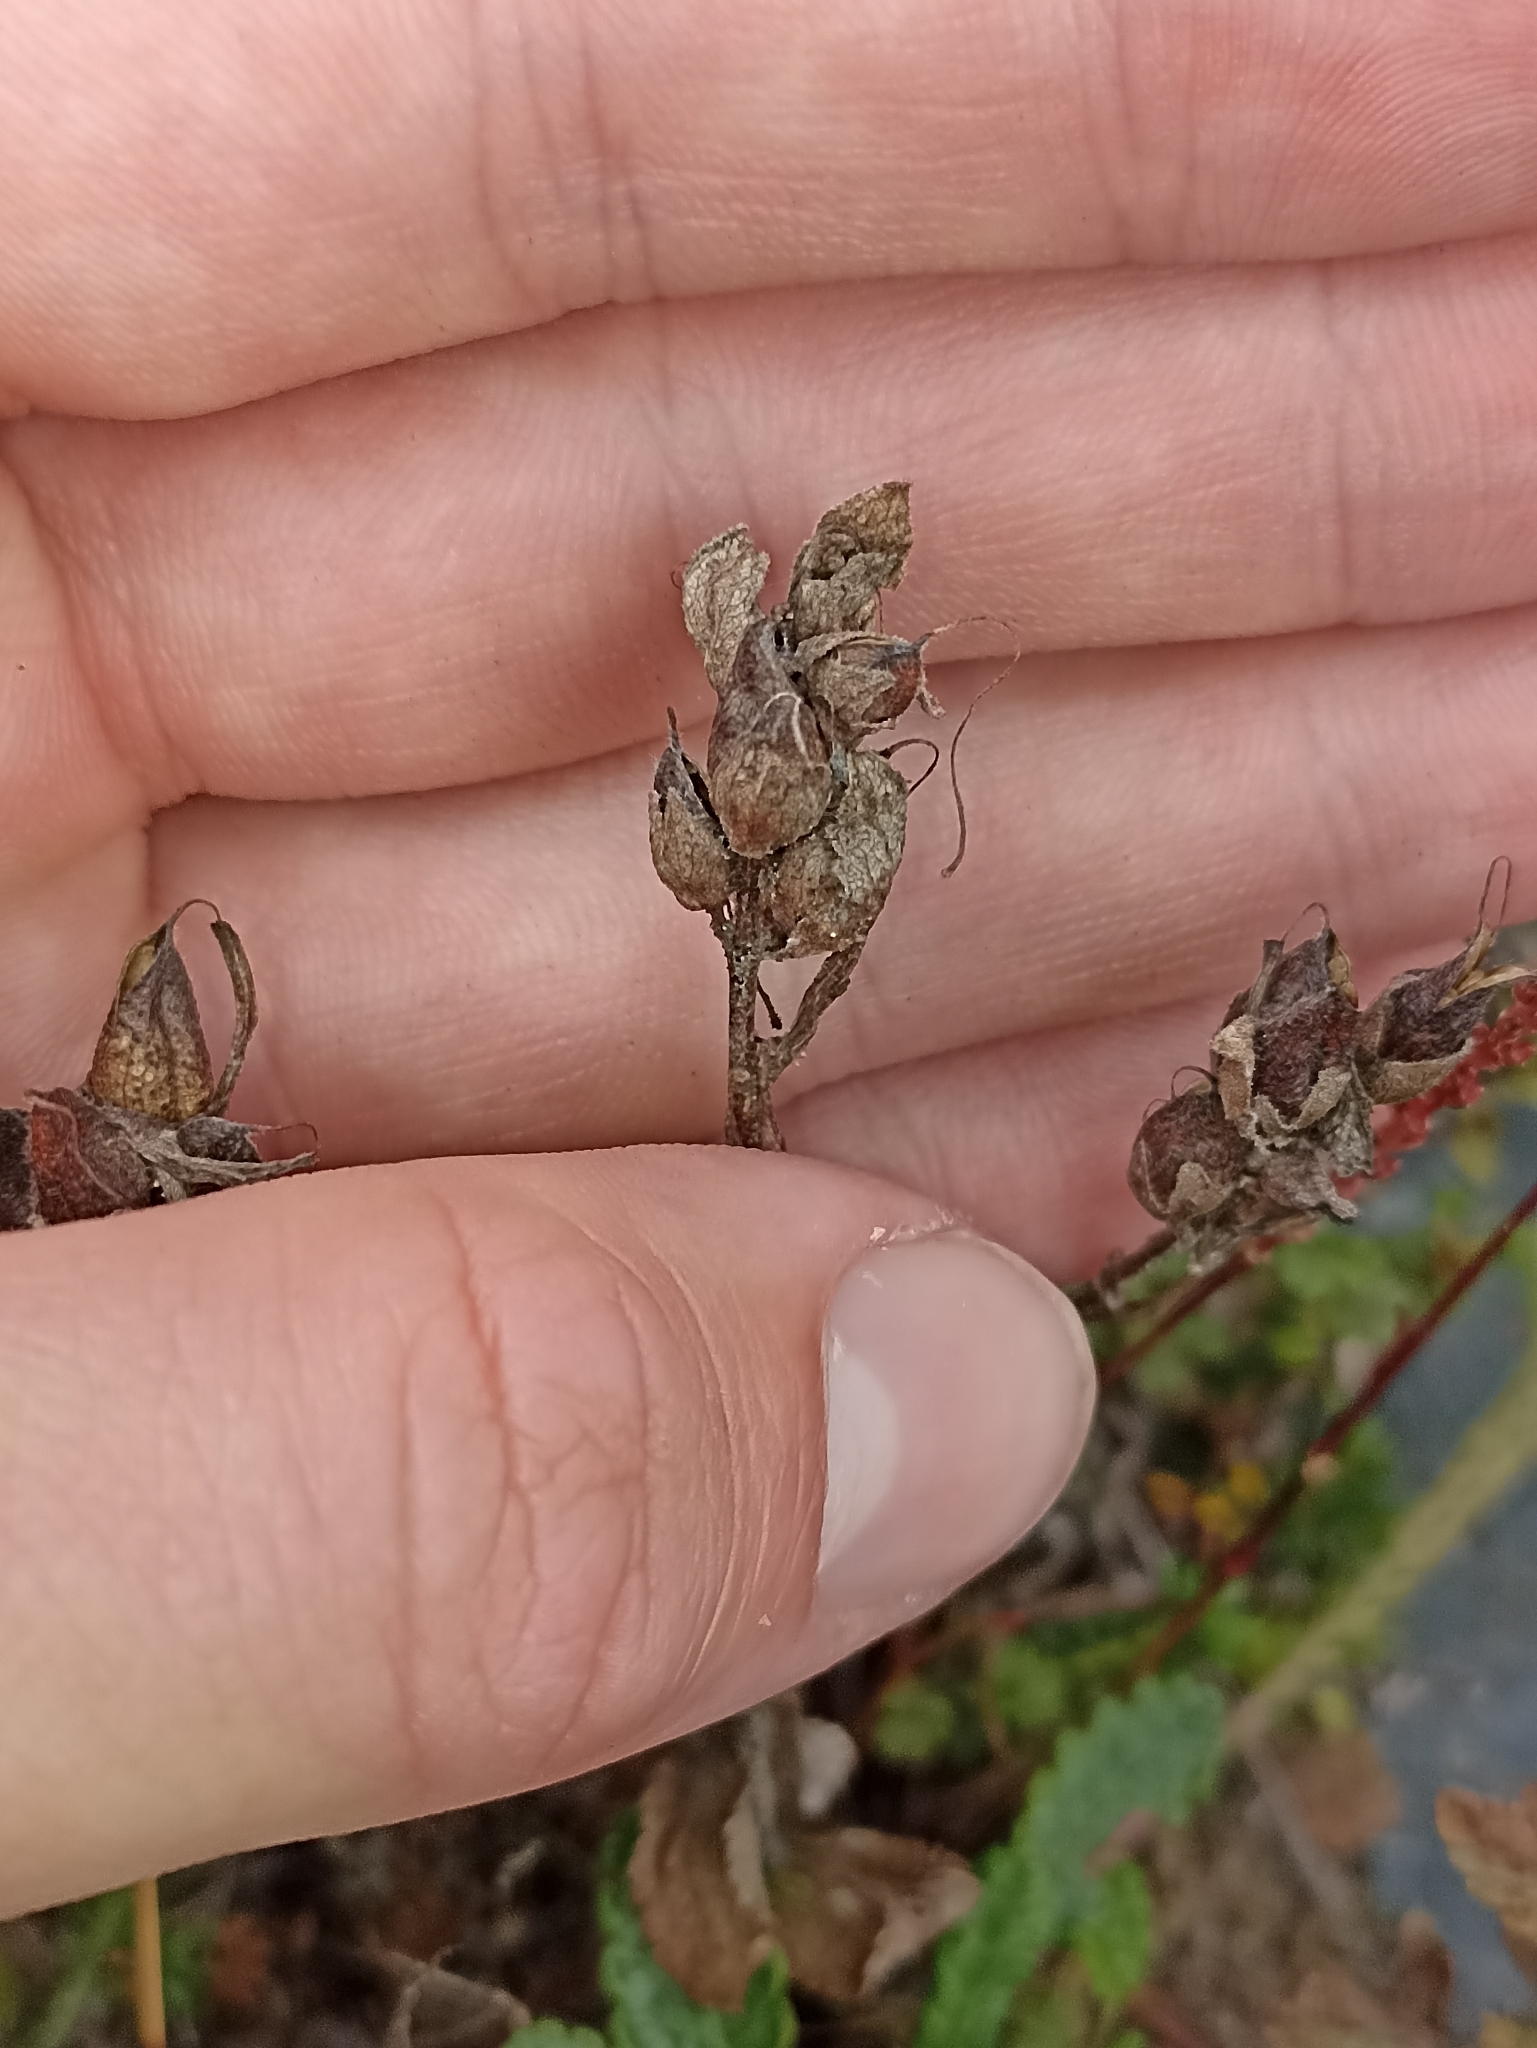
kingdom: Plantae
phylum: Tracheophyta
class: Magnoliopsida
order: Rosales
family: Rosaceae
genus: Dryas
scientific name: Dryas octopetala
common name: Eight-petal mountain-avens
